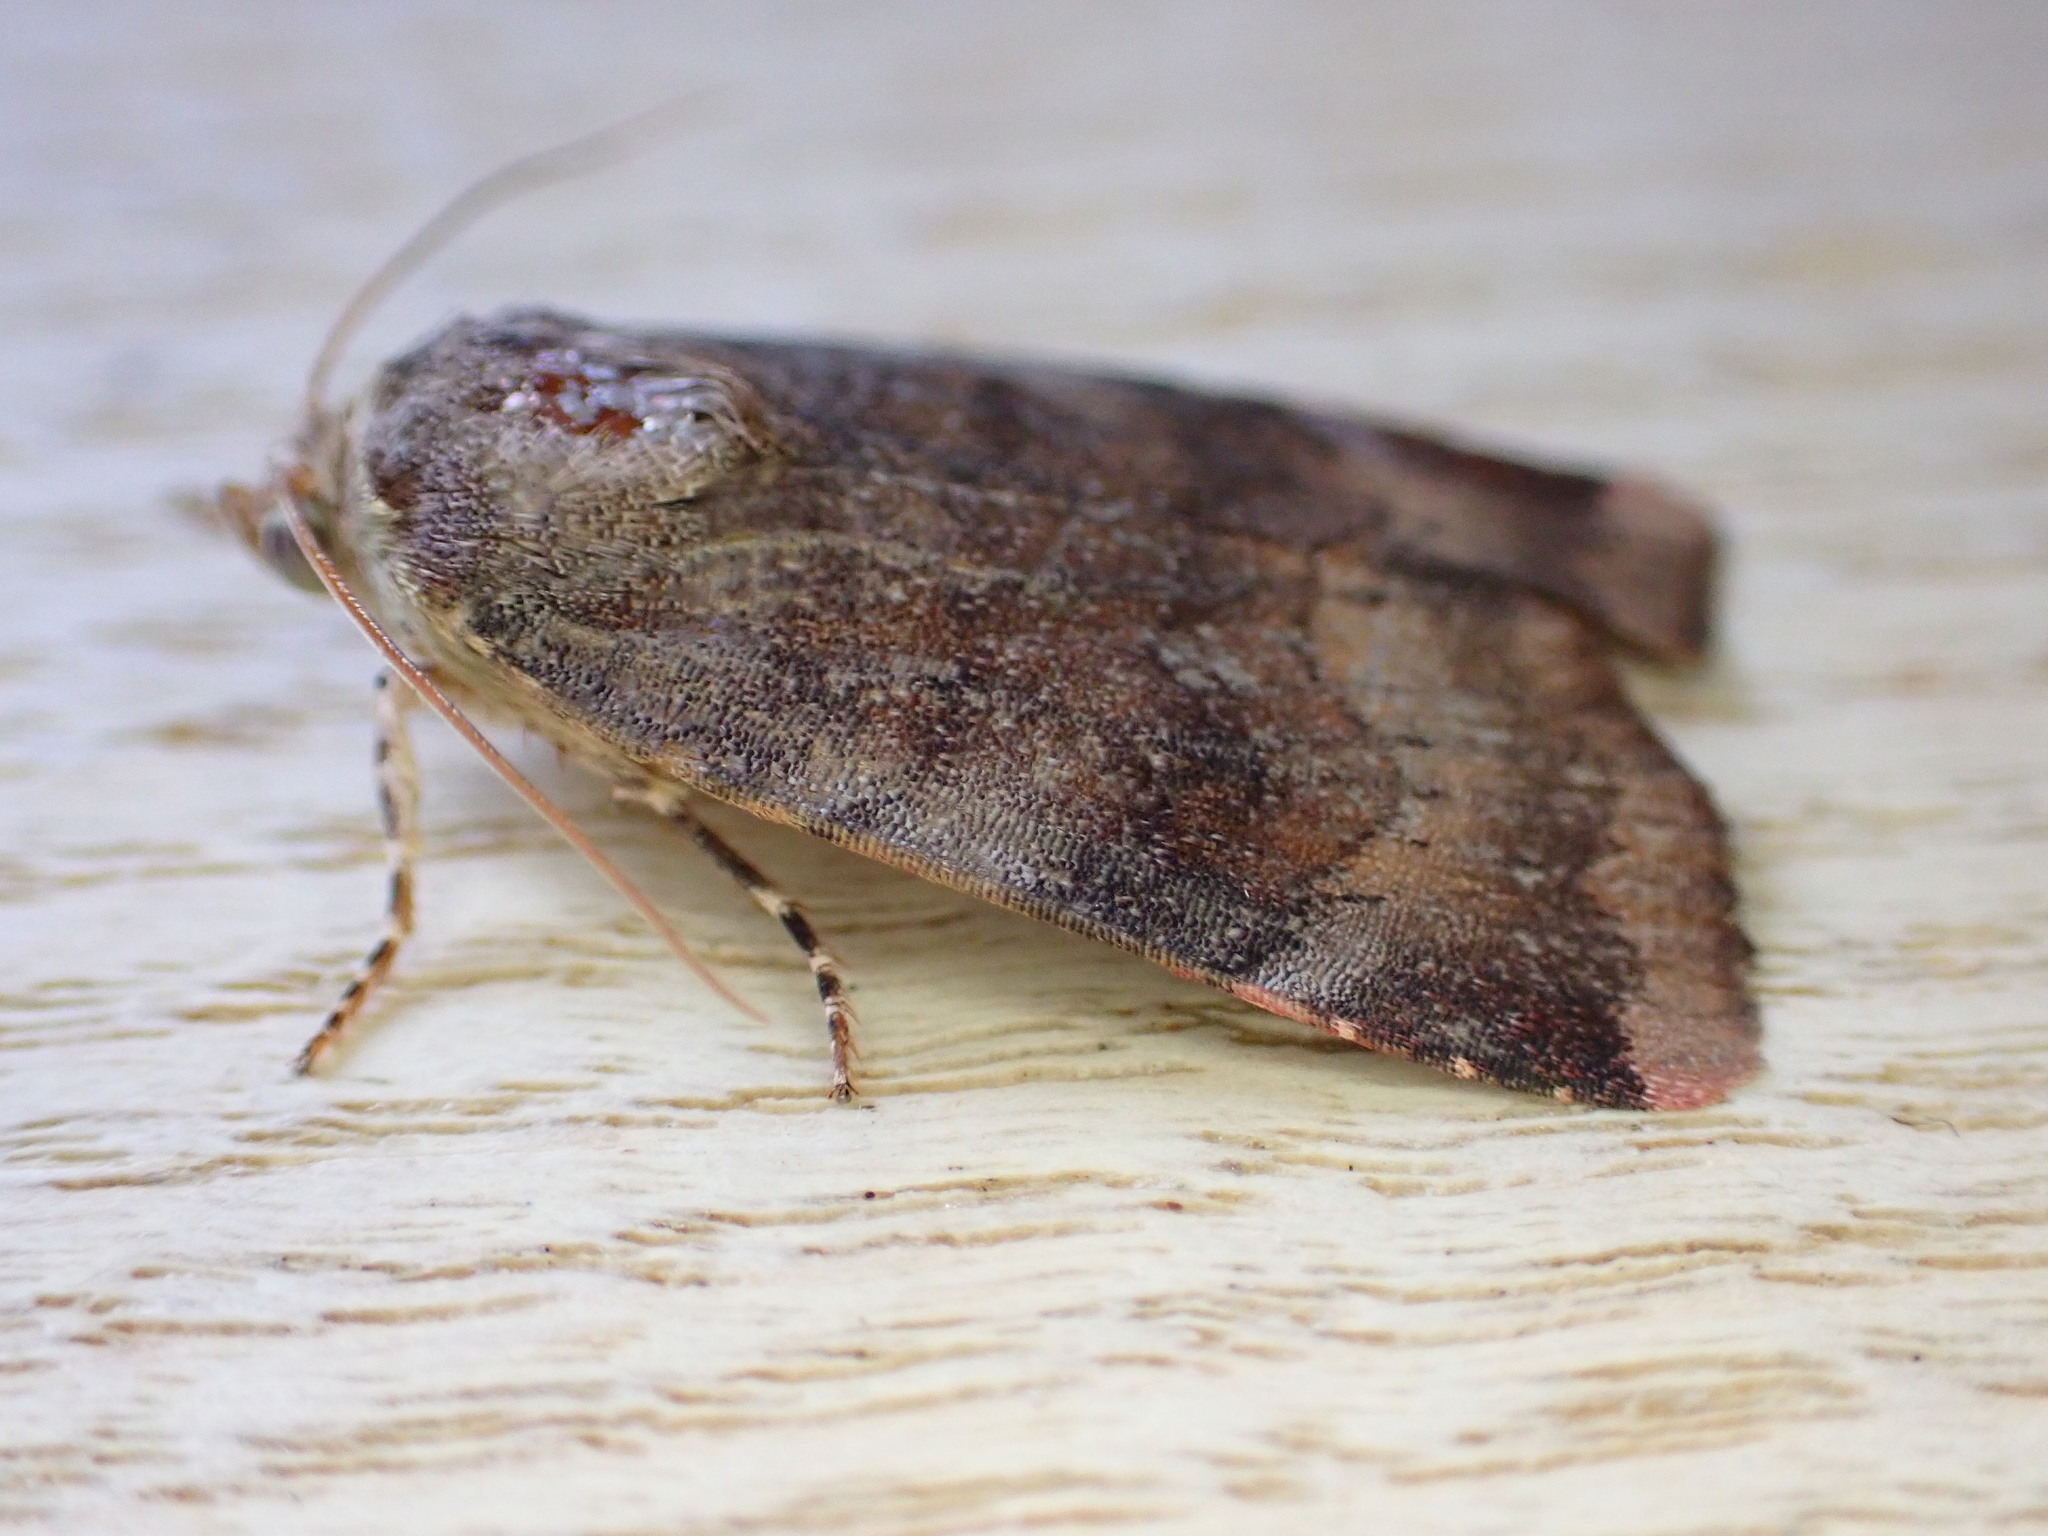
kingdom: Animalia
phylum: Arthropoda
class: Insecta
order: Lepidoptera
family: Noctuidae
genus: Noctua
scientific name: Noctua janthe
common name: Lesser broad-bordered yellow underwing
